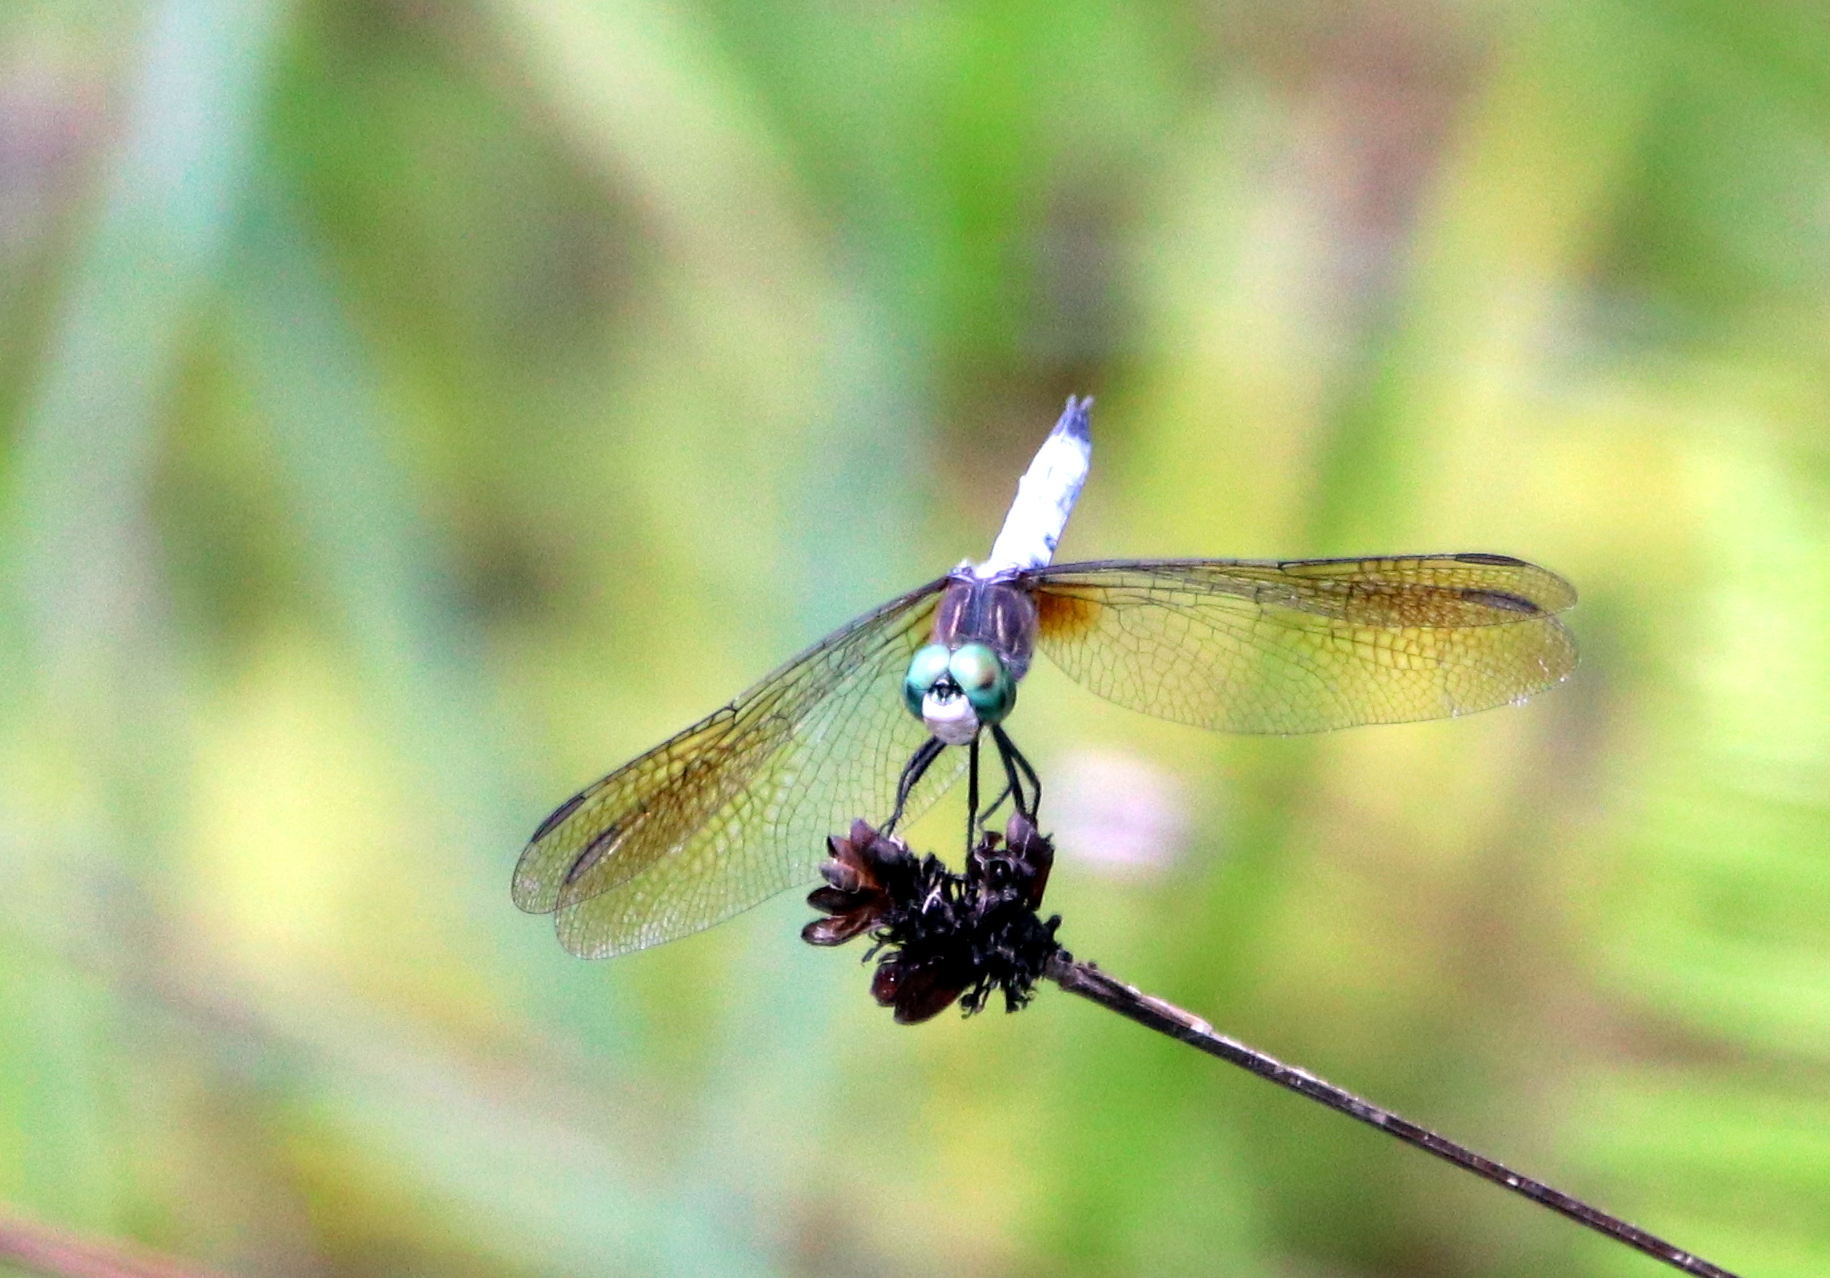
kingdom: Animalia
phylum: Arthropoda
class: Insecta
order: Odonata
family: Libellulidae
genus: Pachydiplax
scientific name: Pachydiplax longipennis
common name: Blue dasher
